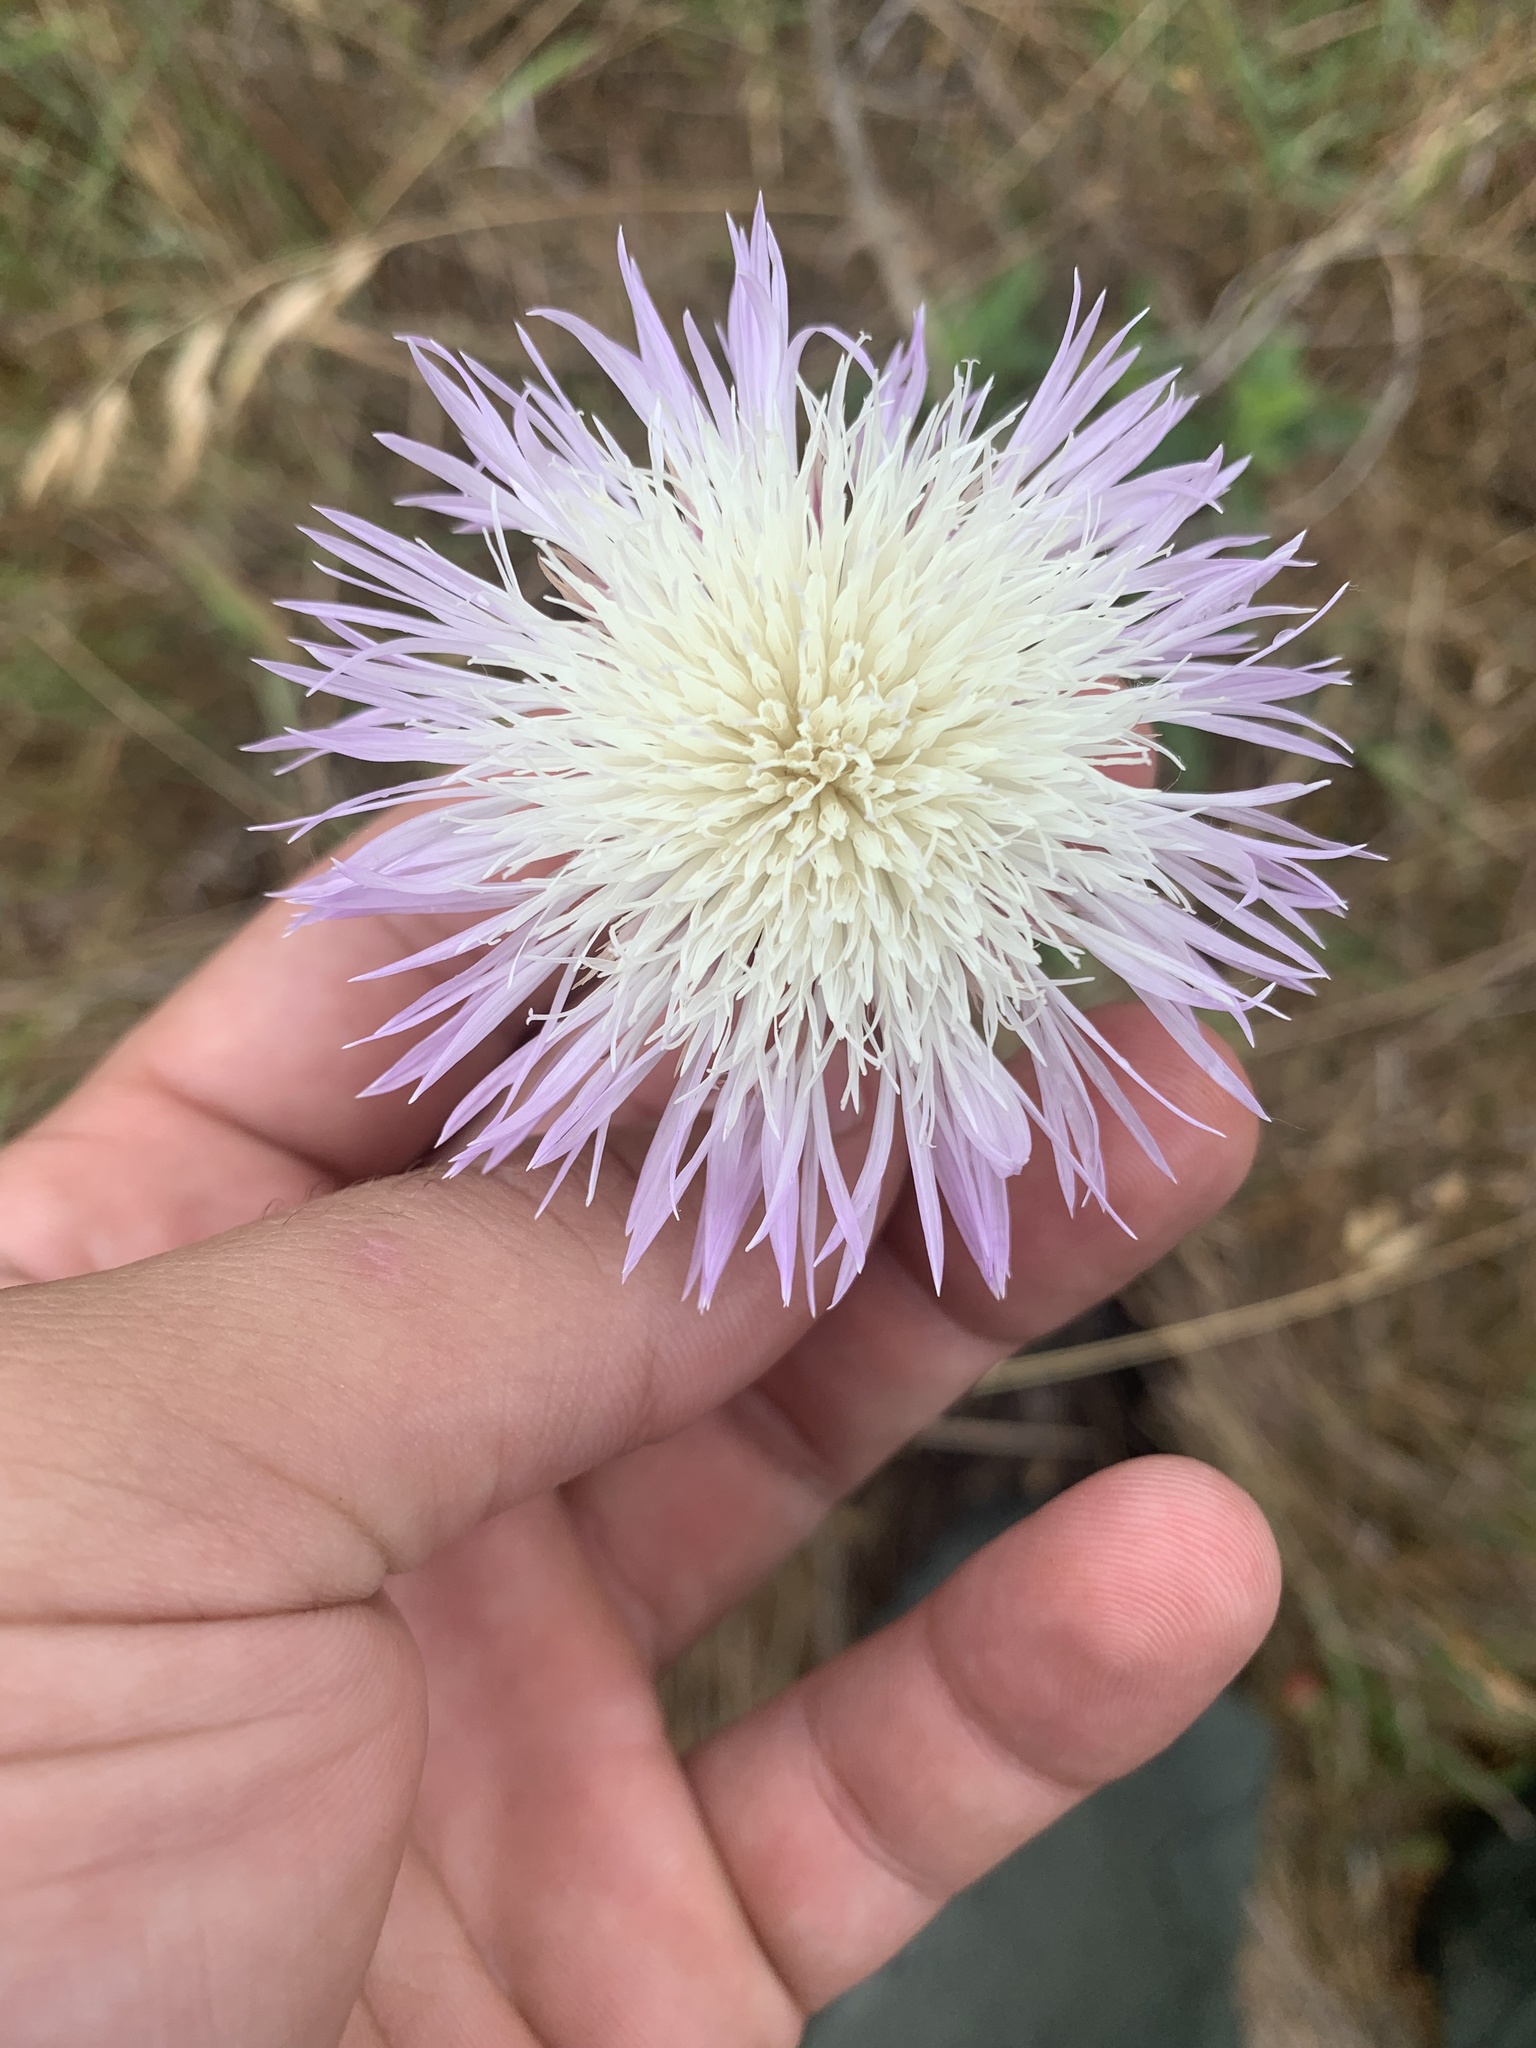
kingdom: Plantae
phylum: Tracheophyta
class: Magnoliopsida
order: Asterales
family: Asteraceae
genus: Plectocephalus
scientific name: Plectocephalus americanus
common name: American basket-flower
